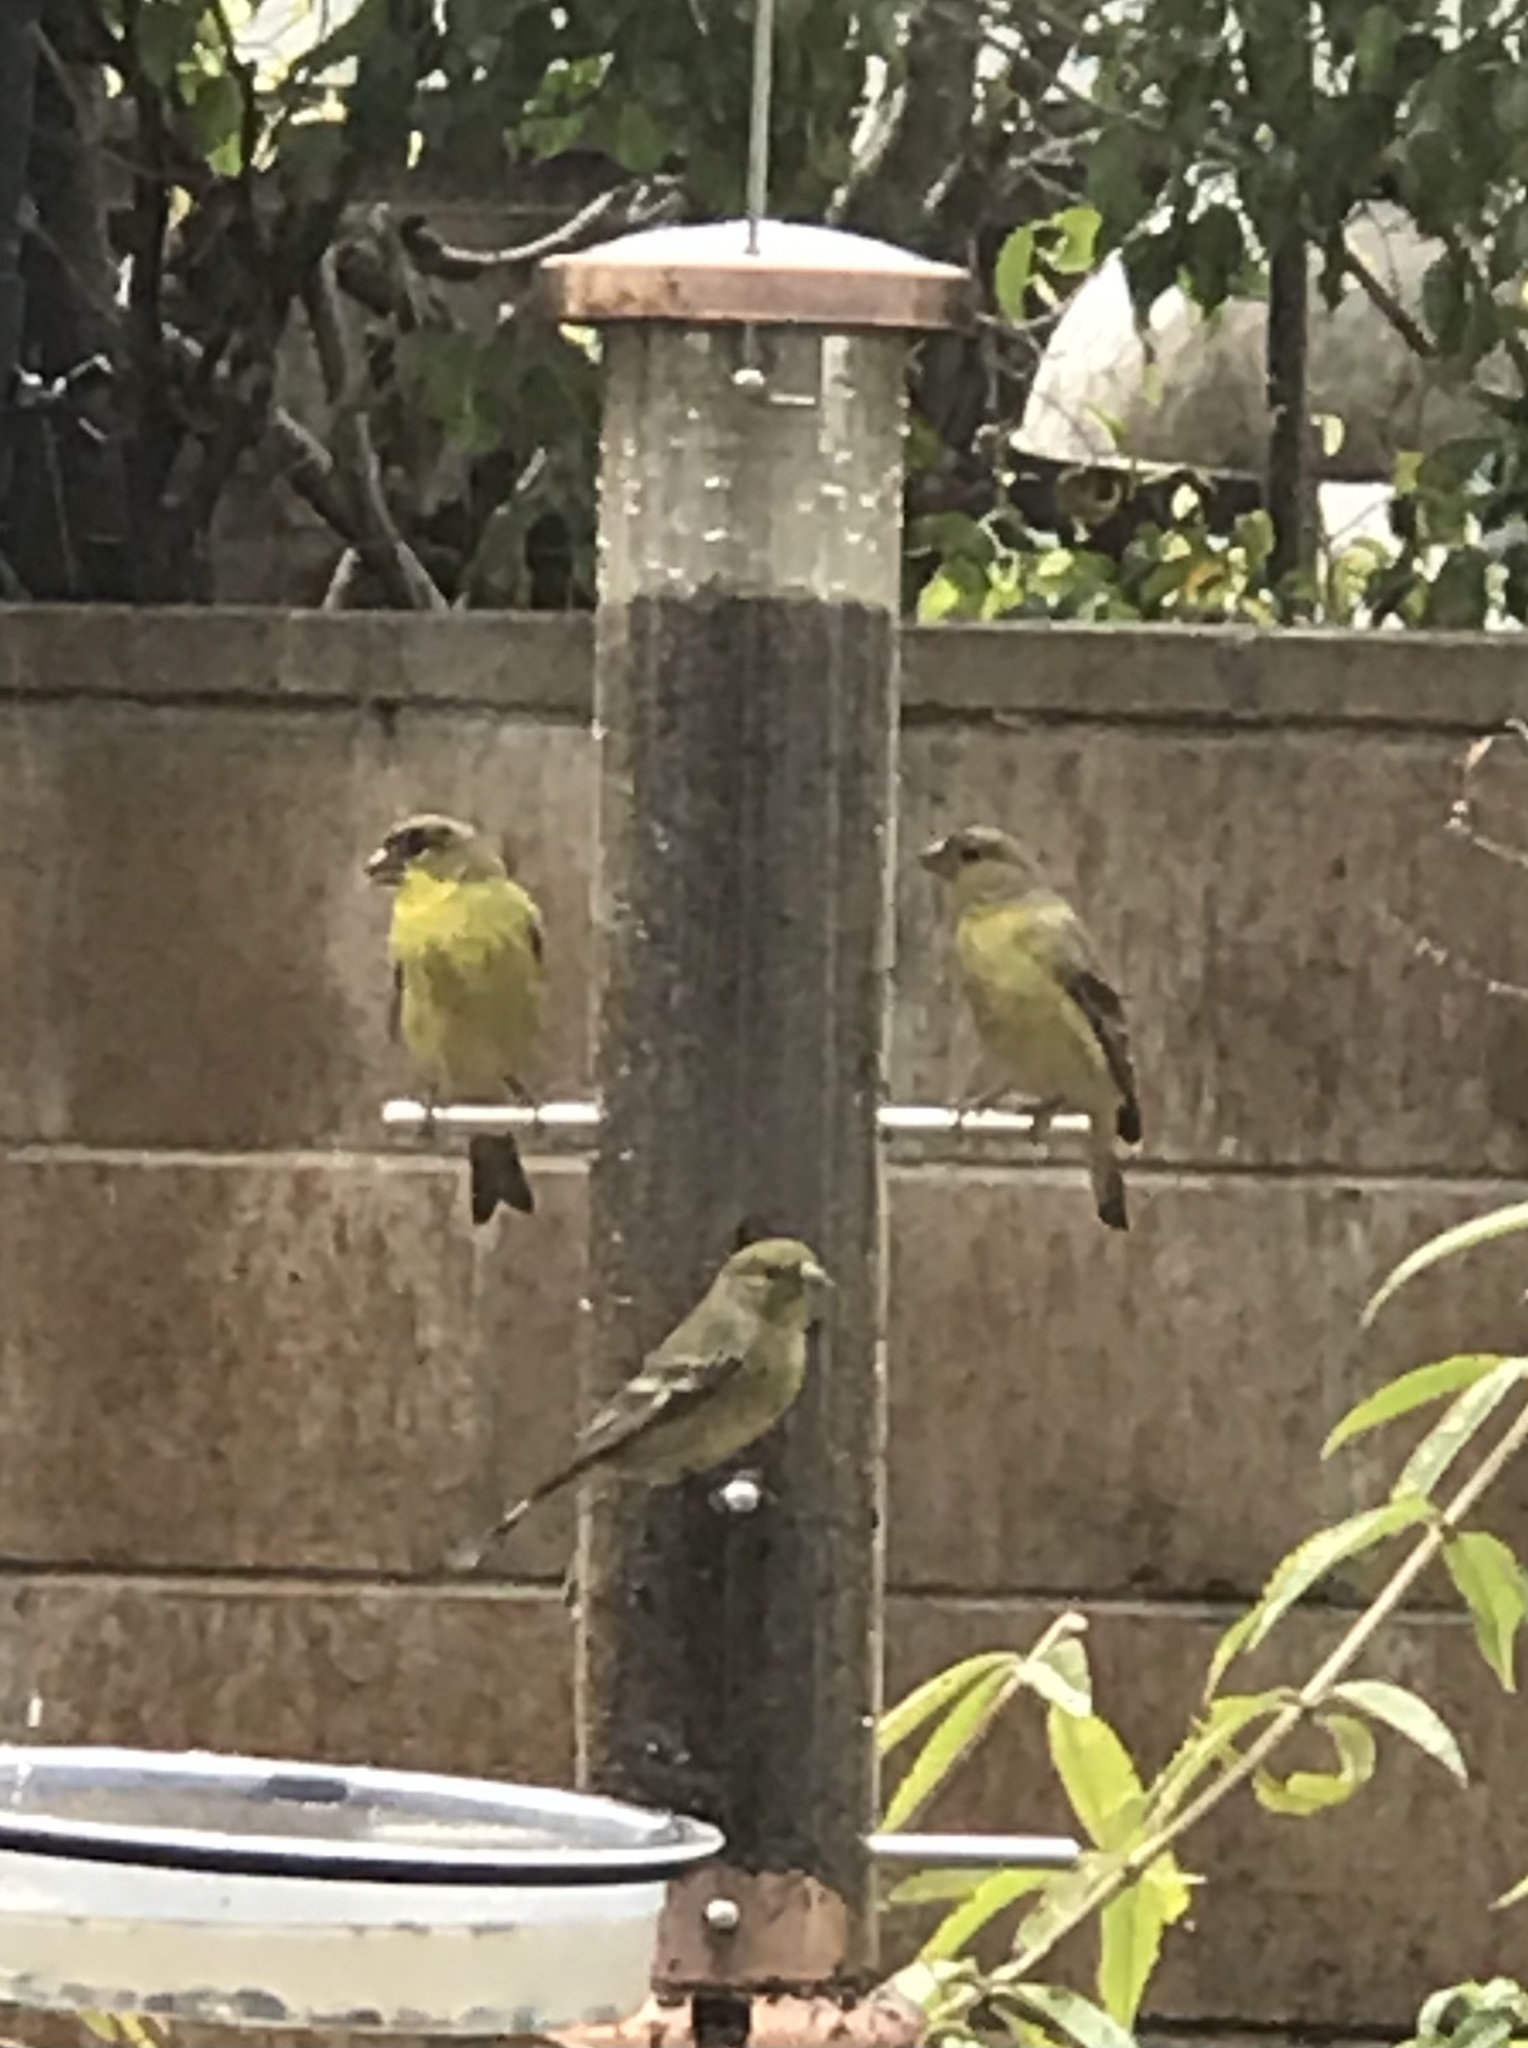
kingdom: Animalia
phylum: Chordata
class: Aves
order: Passeriformes
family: Fringillidae
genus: Spinus
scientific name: Spinus psaltria
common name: Lesser goldfinch
